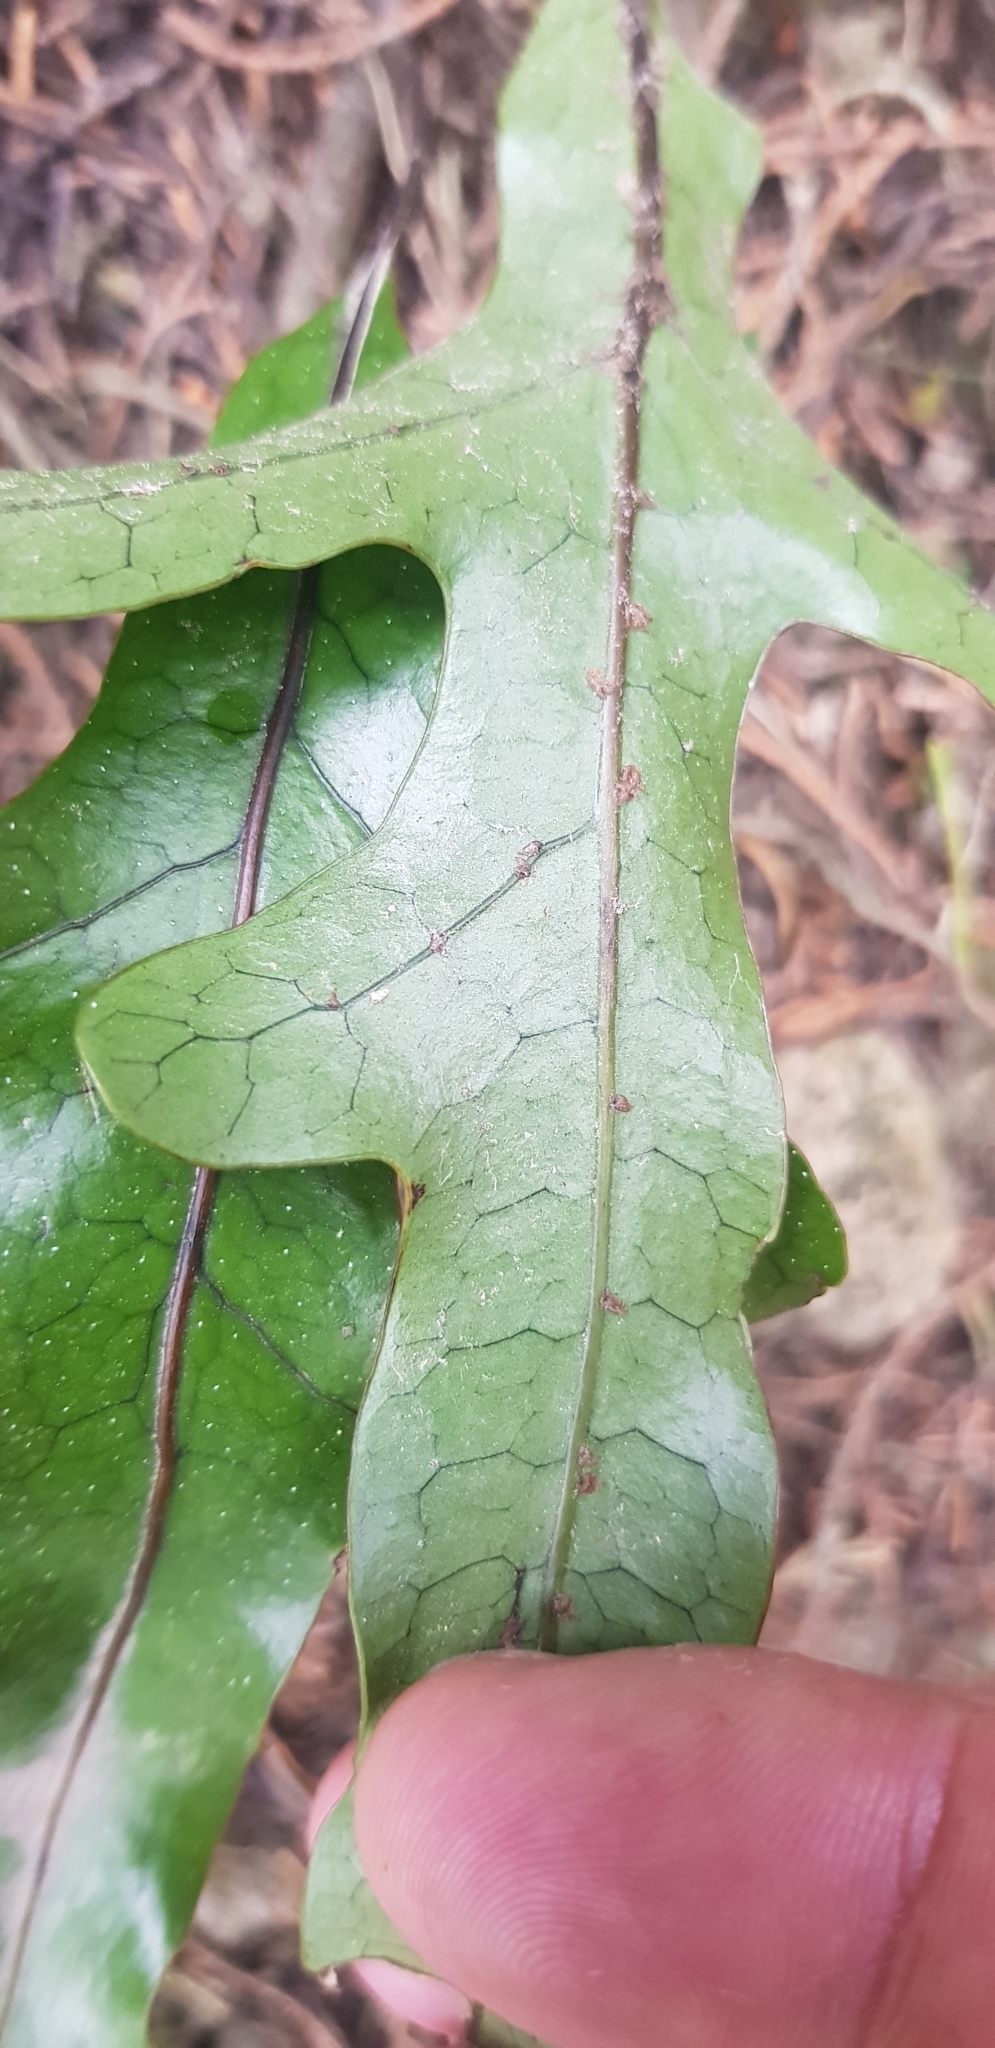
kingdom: Plantae
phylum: Tracheophyta
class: Polypodiopsida
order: Polypodiales
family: Polypodiaceae
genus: Lecanopteris
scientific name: Lecanopteris pustulata
